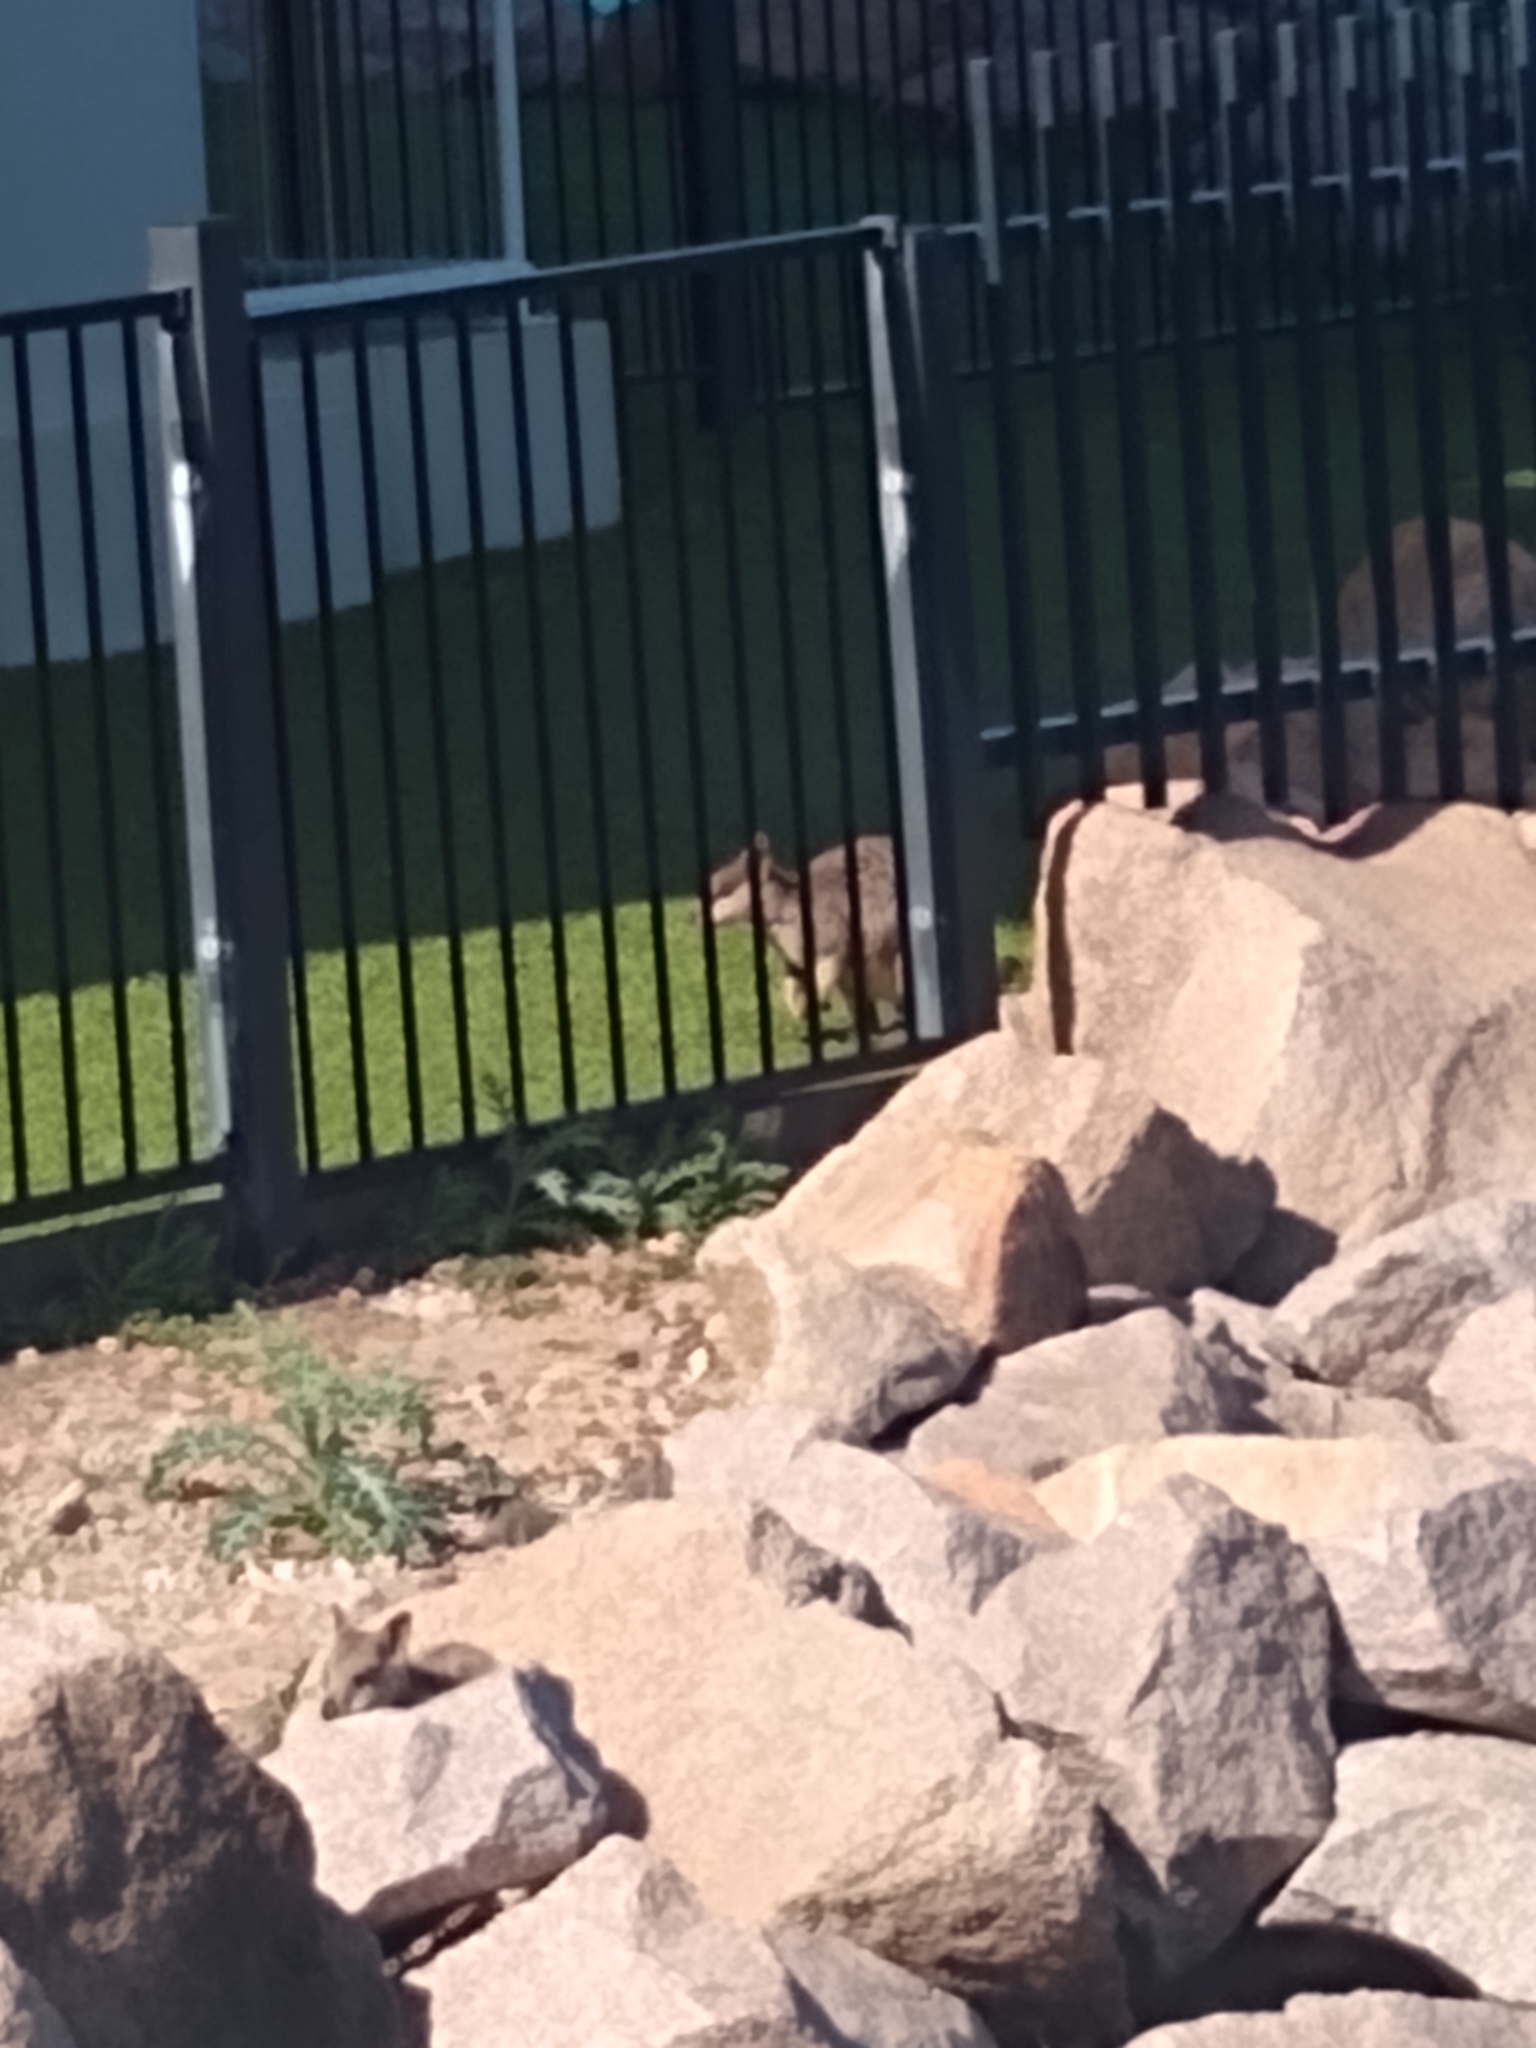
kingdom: Animalia
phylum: Chordata
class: Mammalia
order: Diprotodontia
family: Macropodidae
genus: Petrogale
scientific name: Petrogale assimilis
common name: Allied rock wallaby
